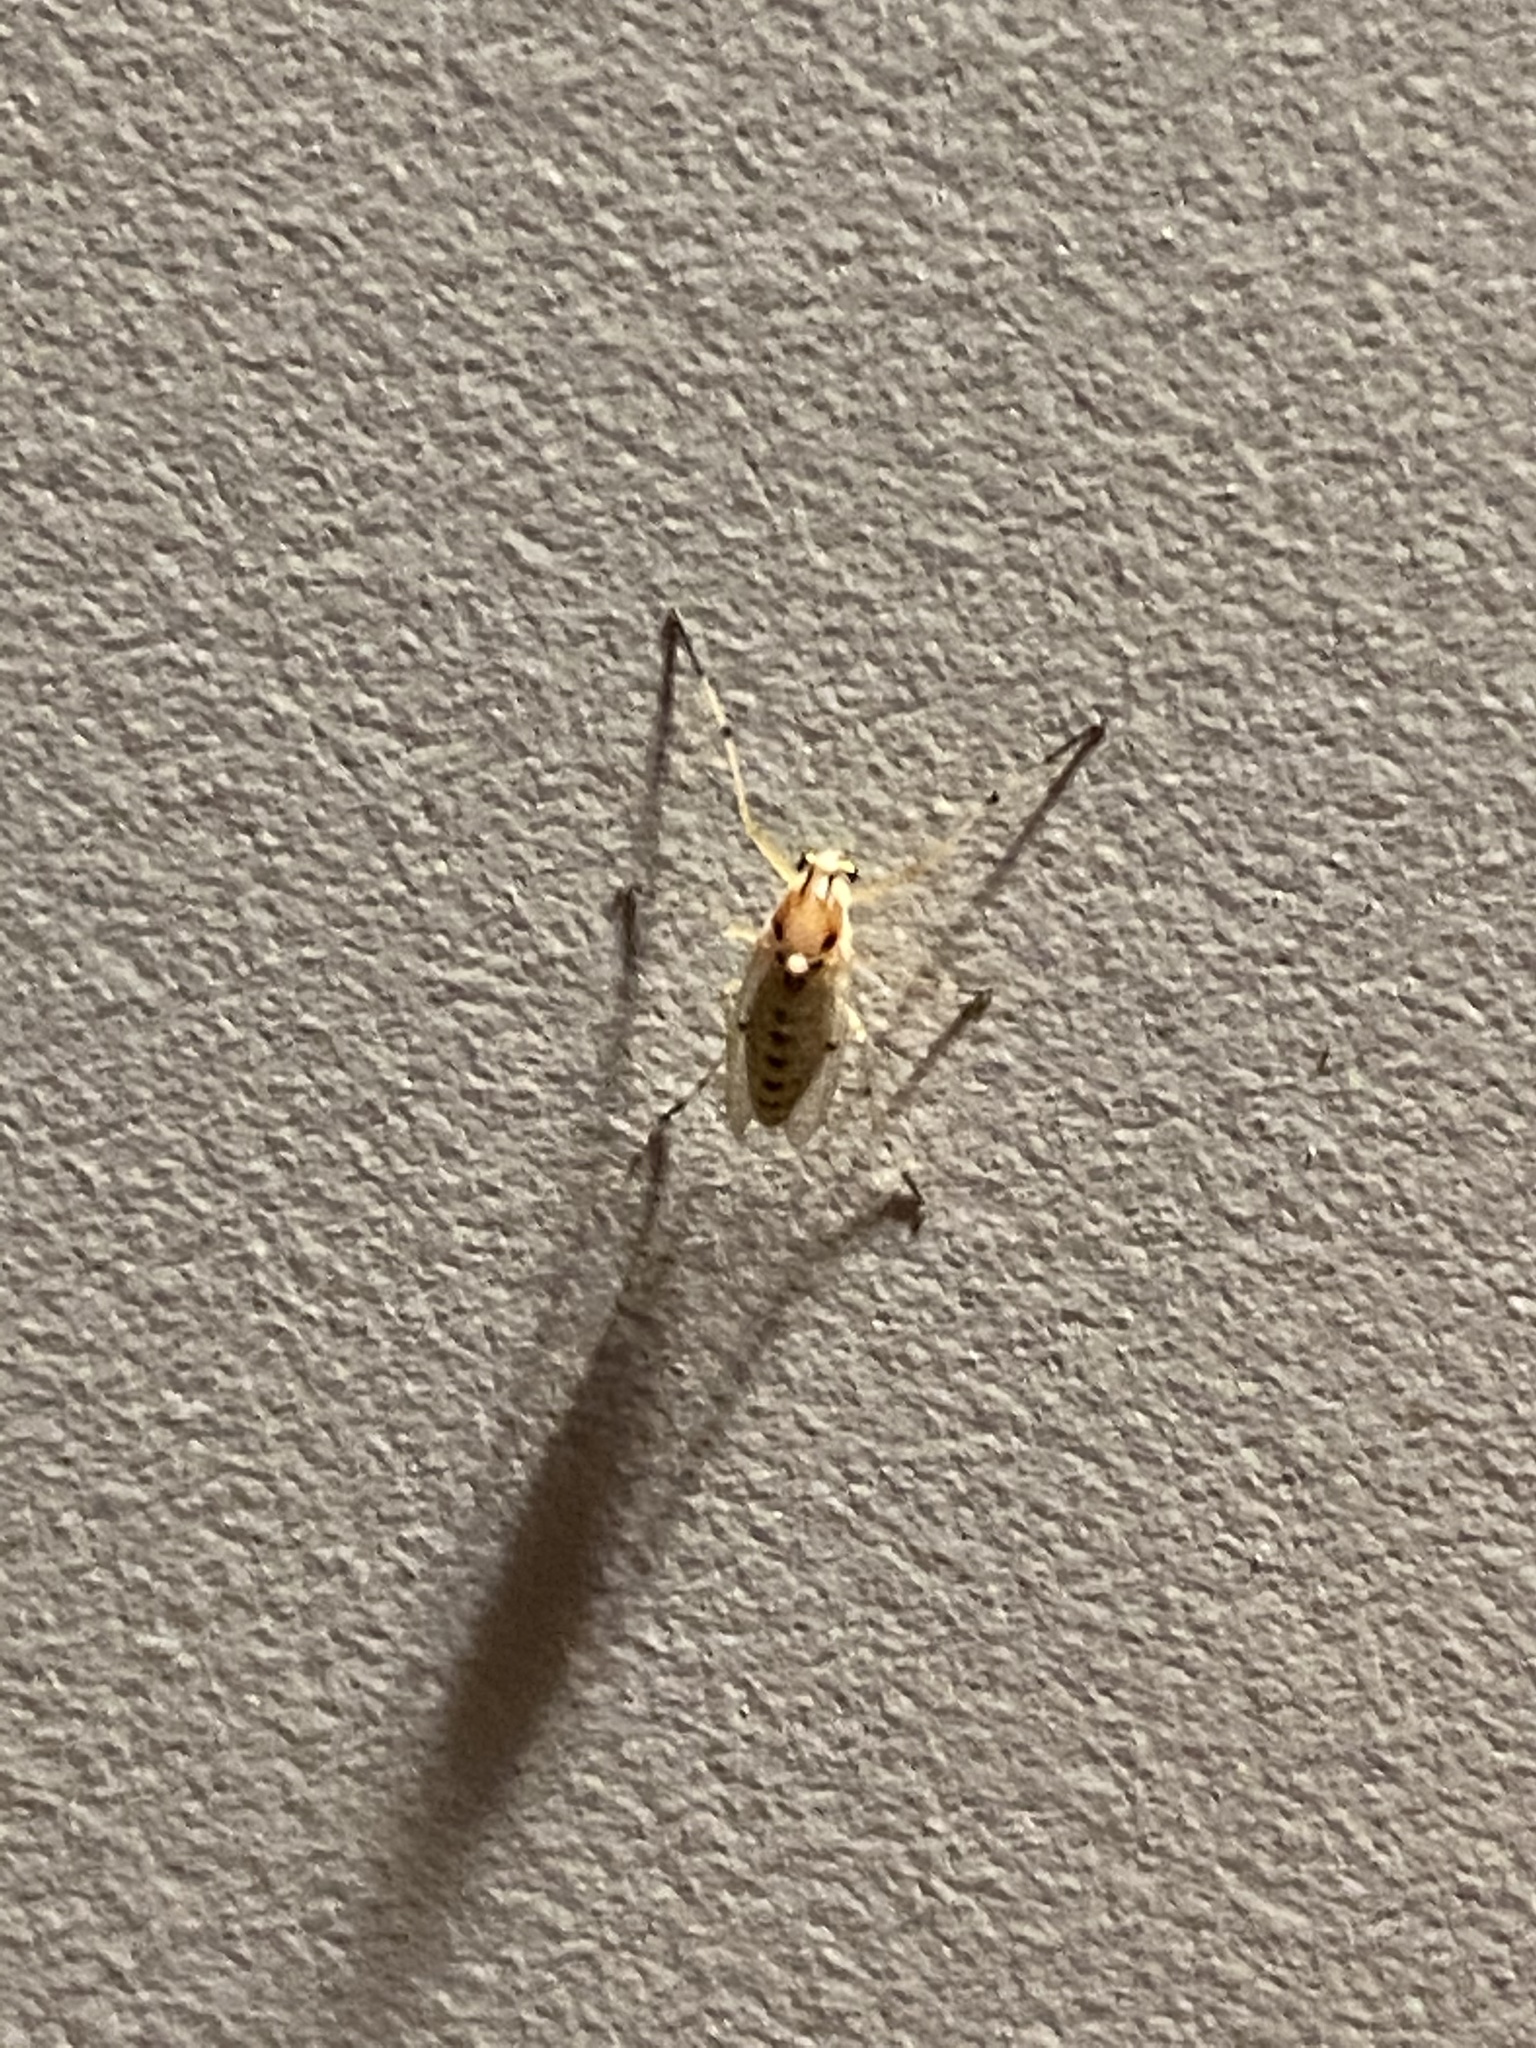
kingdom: Animalia
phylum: Arthropoda
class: Insecta
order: Diptera
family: Chironomidae
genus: Coelotanypus
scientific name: Coelotanypus tricolor
